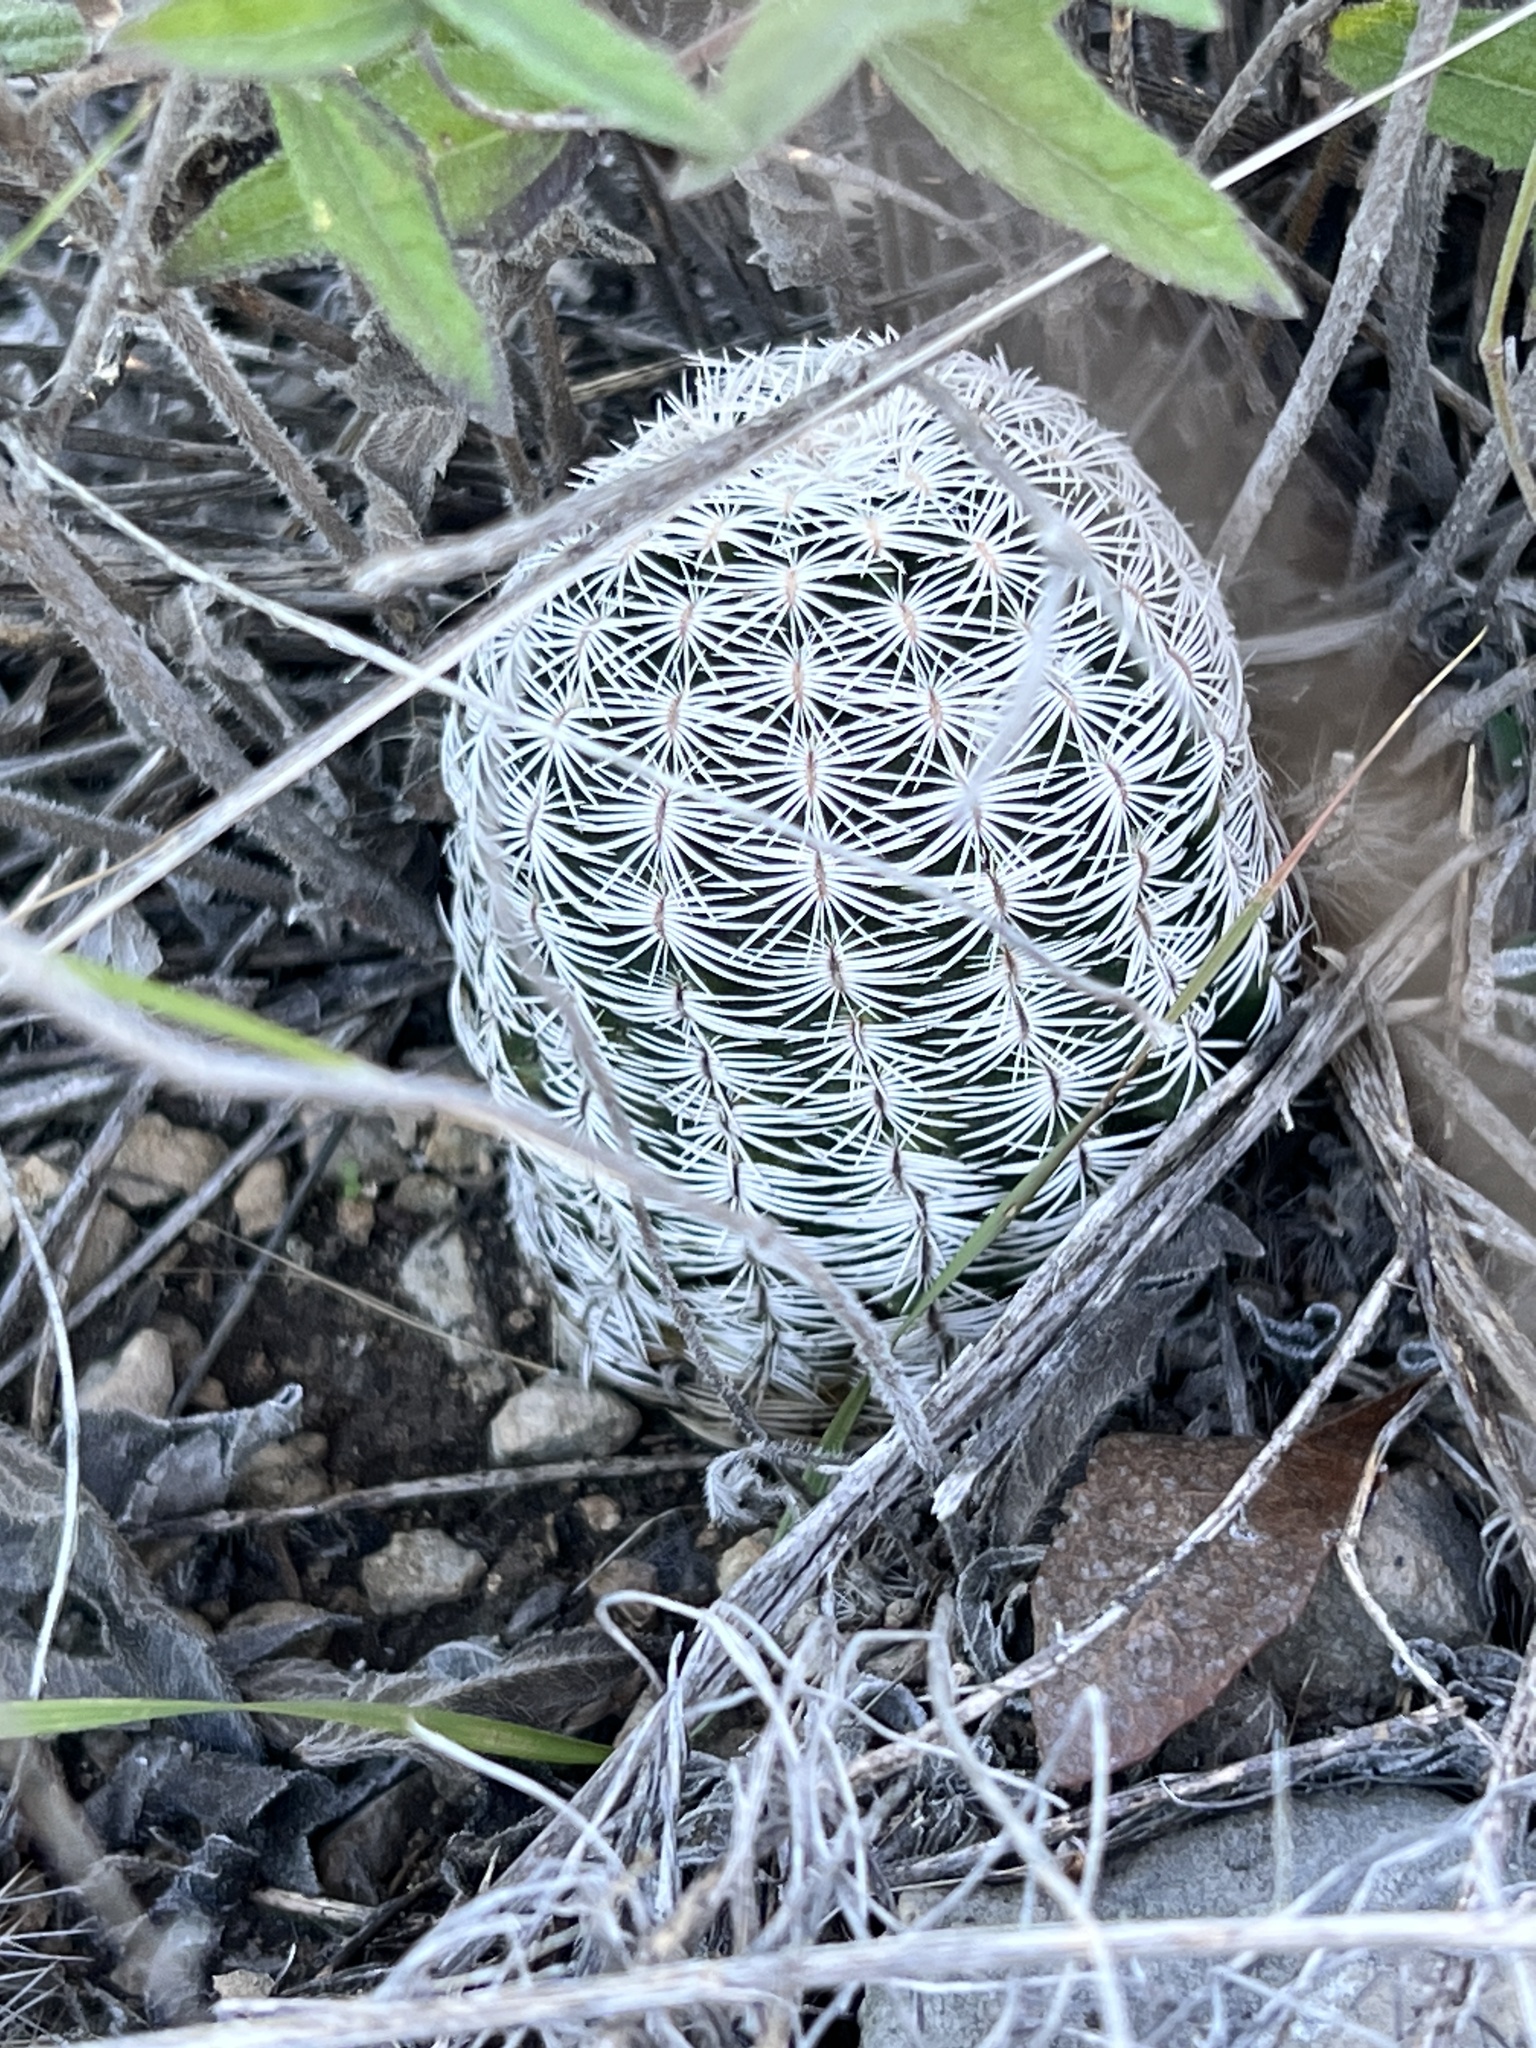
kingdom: Plantae
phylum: Tracheophyta
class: Magnoliopsida
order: Caryophyllales
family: Cactaceae
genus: Echinocereus
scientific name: Echinocereus reichenbachii
